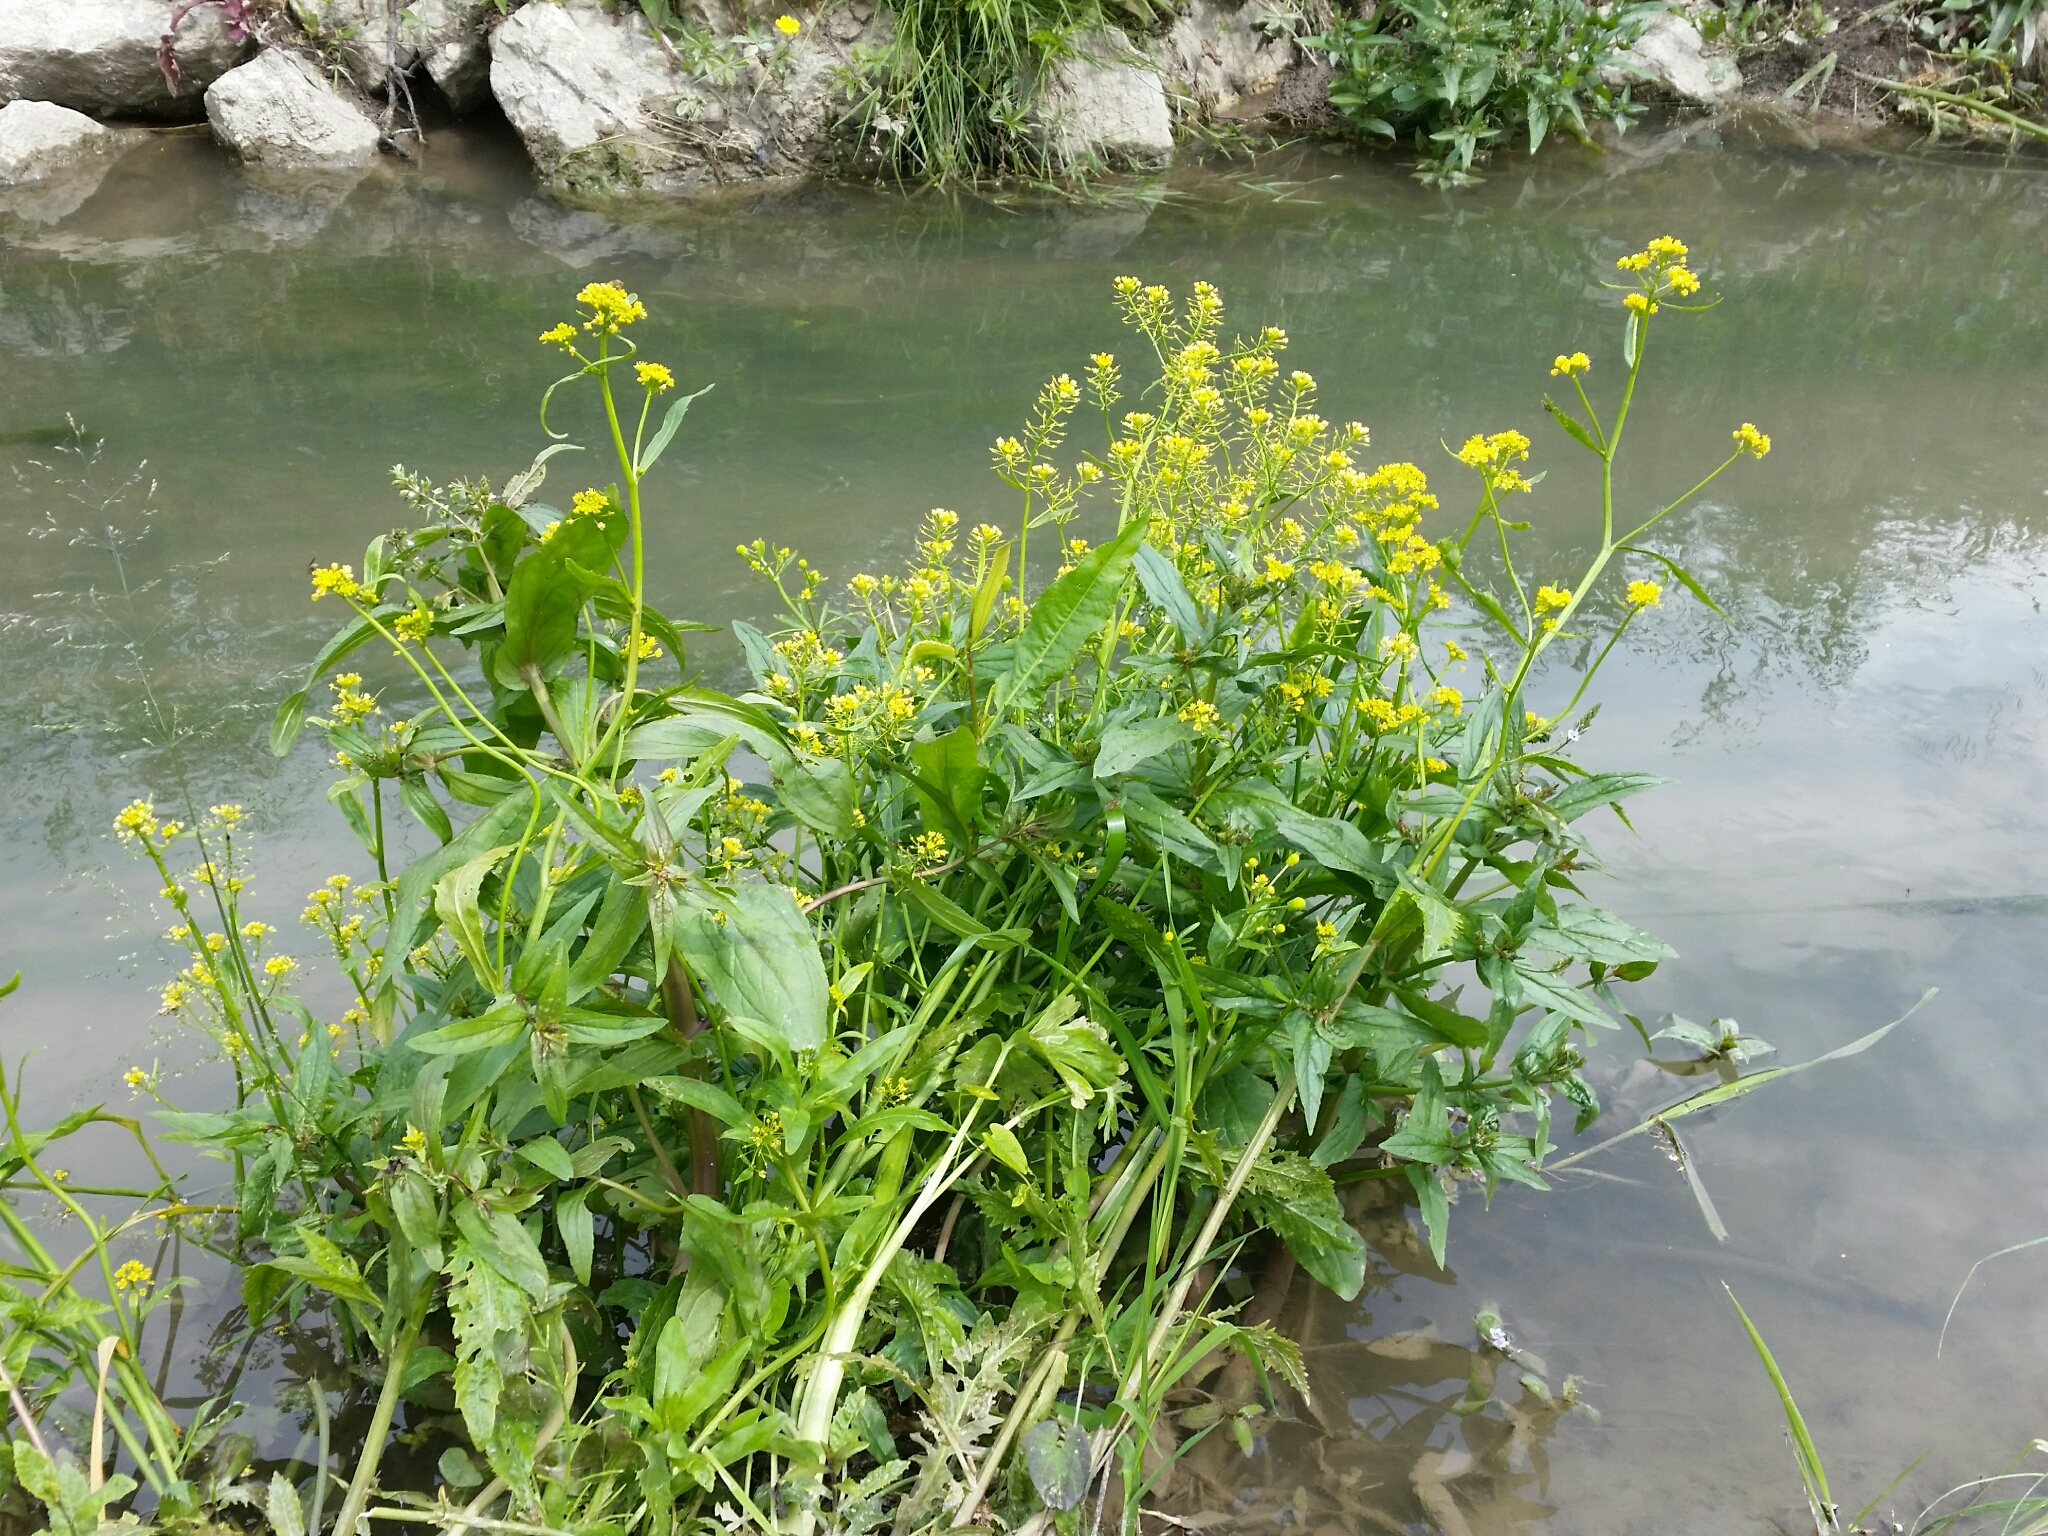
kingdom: Plantae
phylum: Tracheophyta
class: Magnoliopsida
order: Brassicales
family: Brassicaceae
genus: Rorippa
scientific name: Rorippa amphibia
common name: Great yellow-cress
